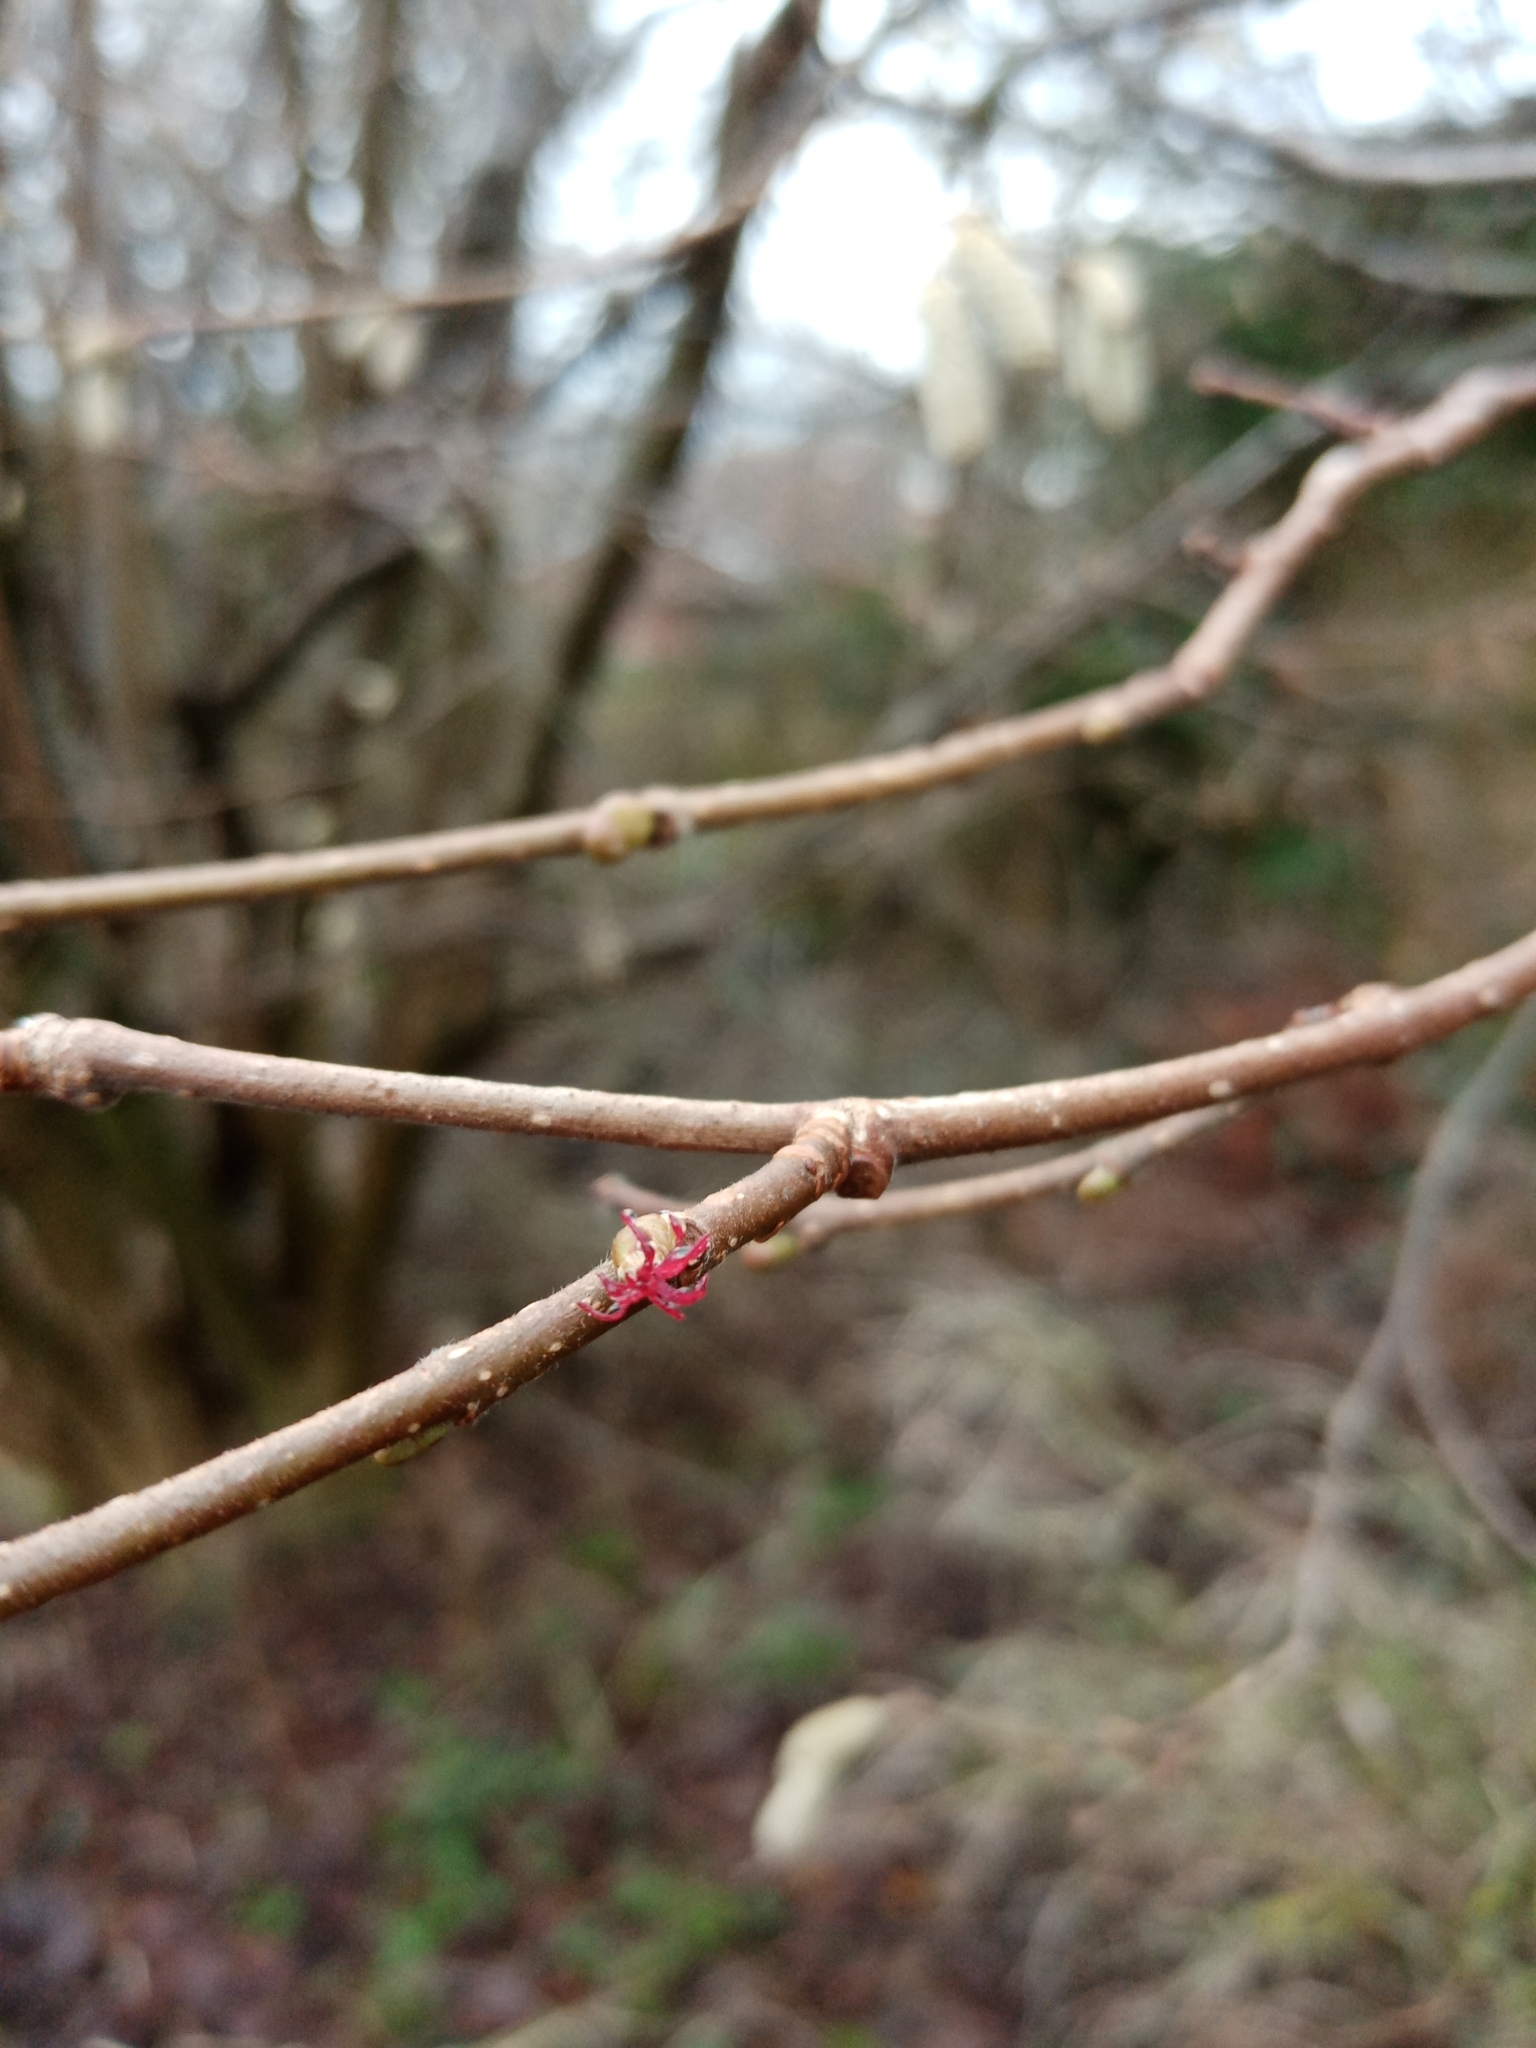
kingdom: Plantae
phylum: Tracheophyta
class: Magnoliopsida
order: Fagales
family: Betulaceae
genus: Corylus
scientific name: Corylus avellana
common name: European hazel
